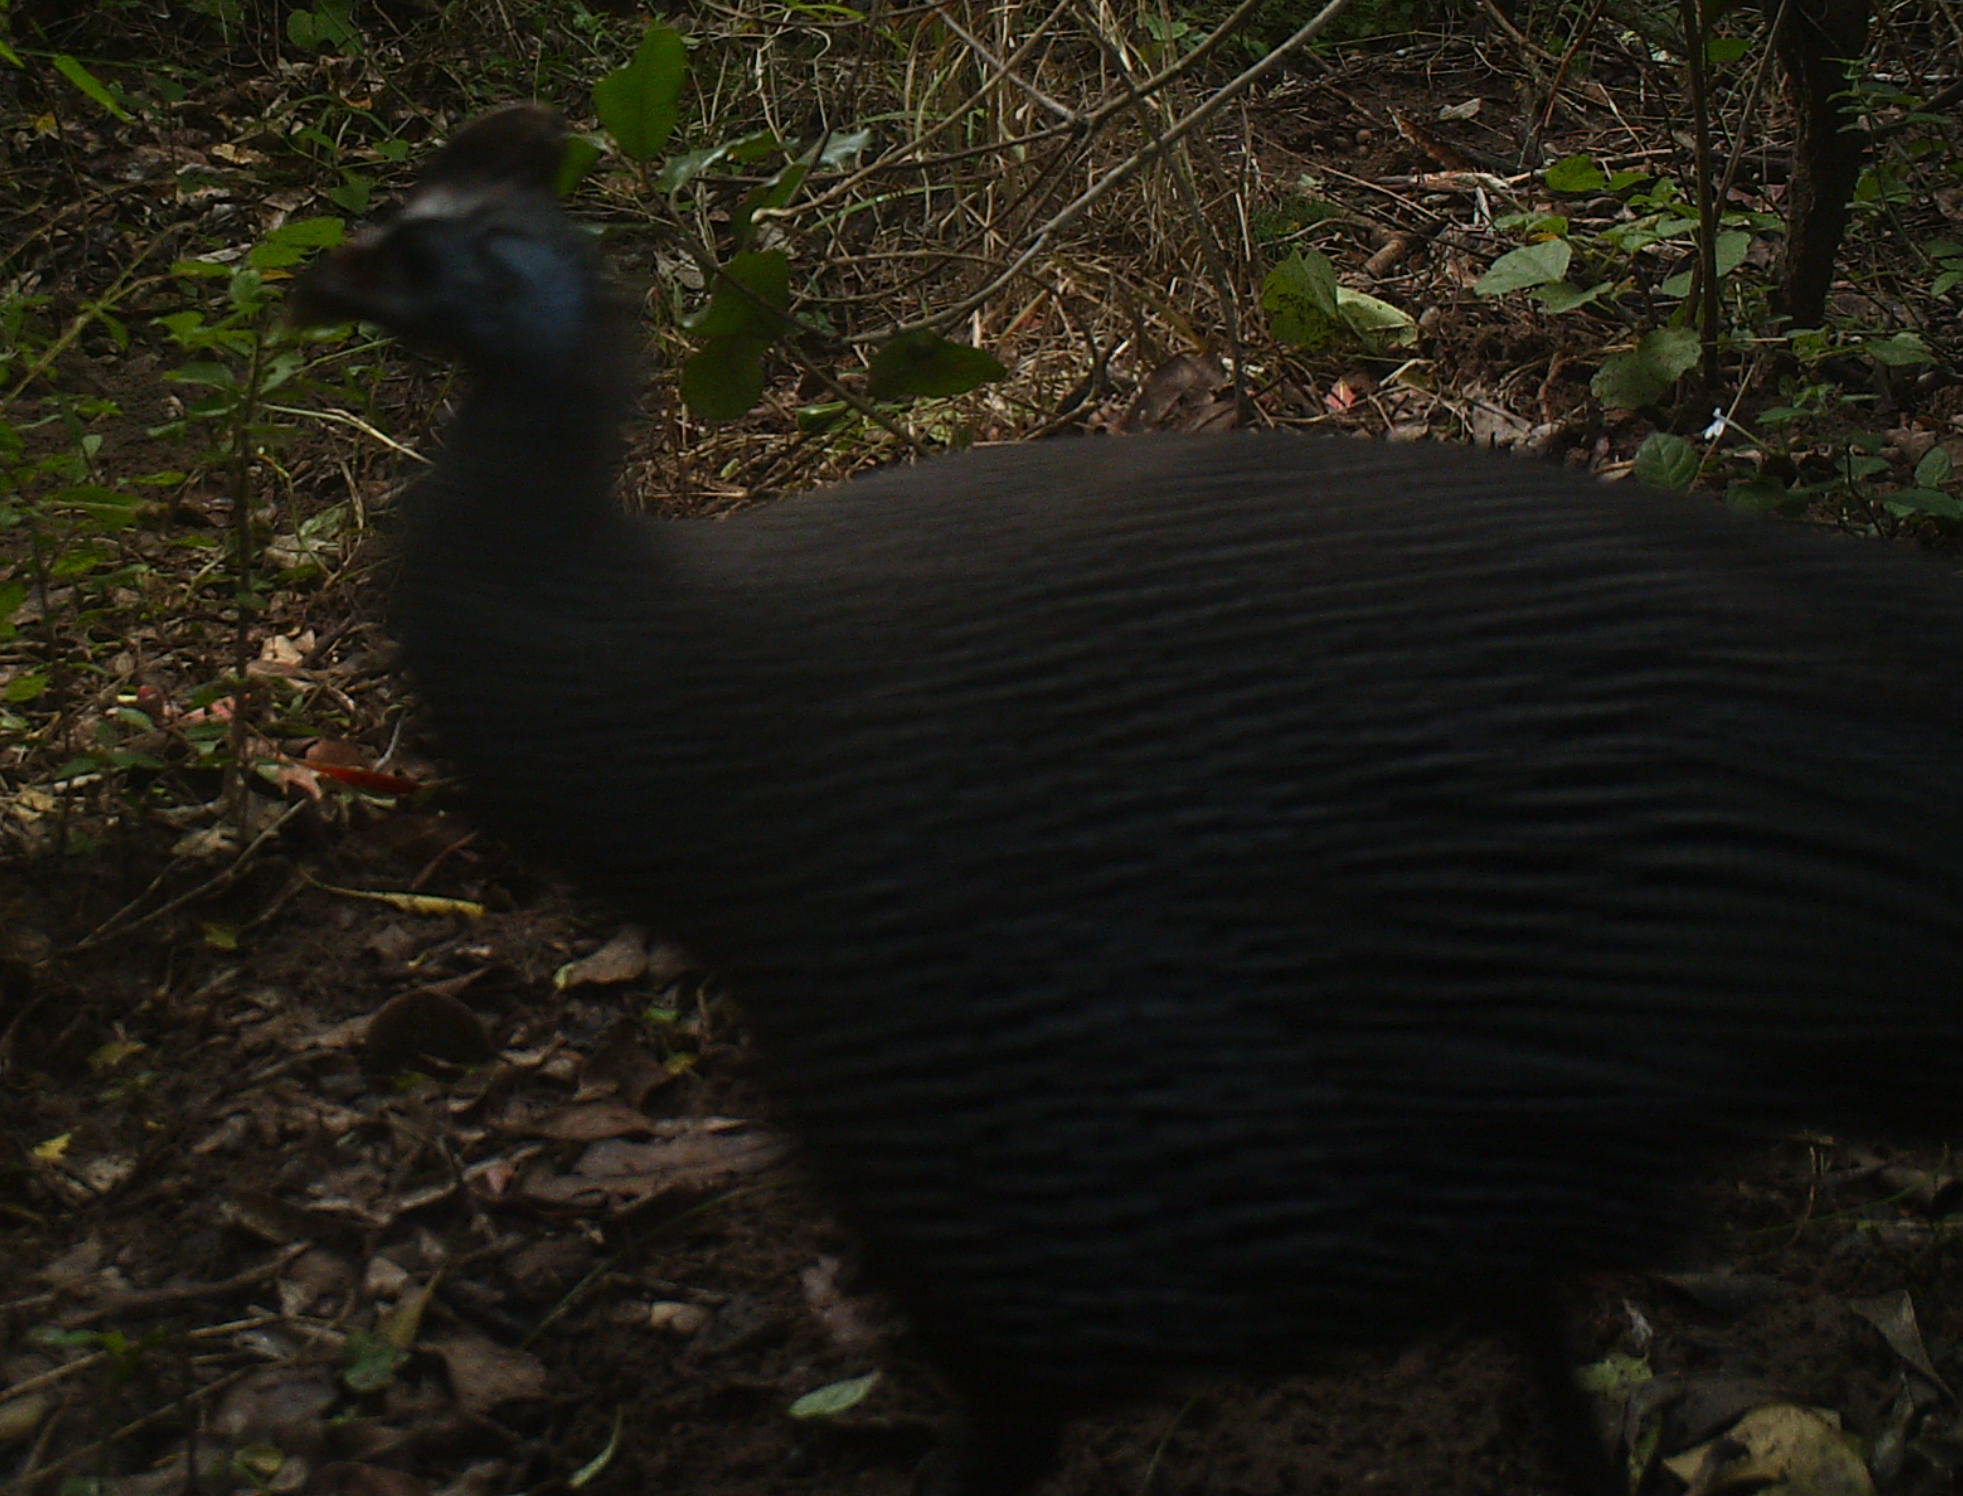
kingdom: Animalia
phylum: Chordata
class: Aves
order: Galliformes
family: Numididae
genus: Numida
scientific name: Numida meleagris
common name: Helmeted guineafowl
